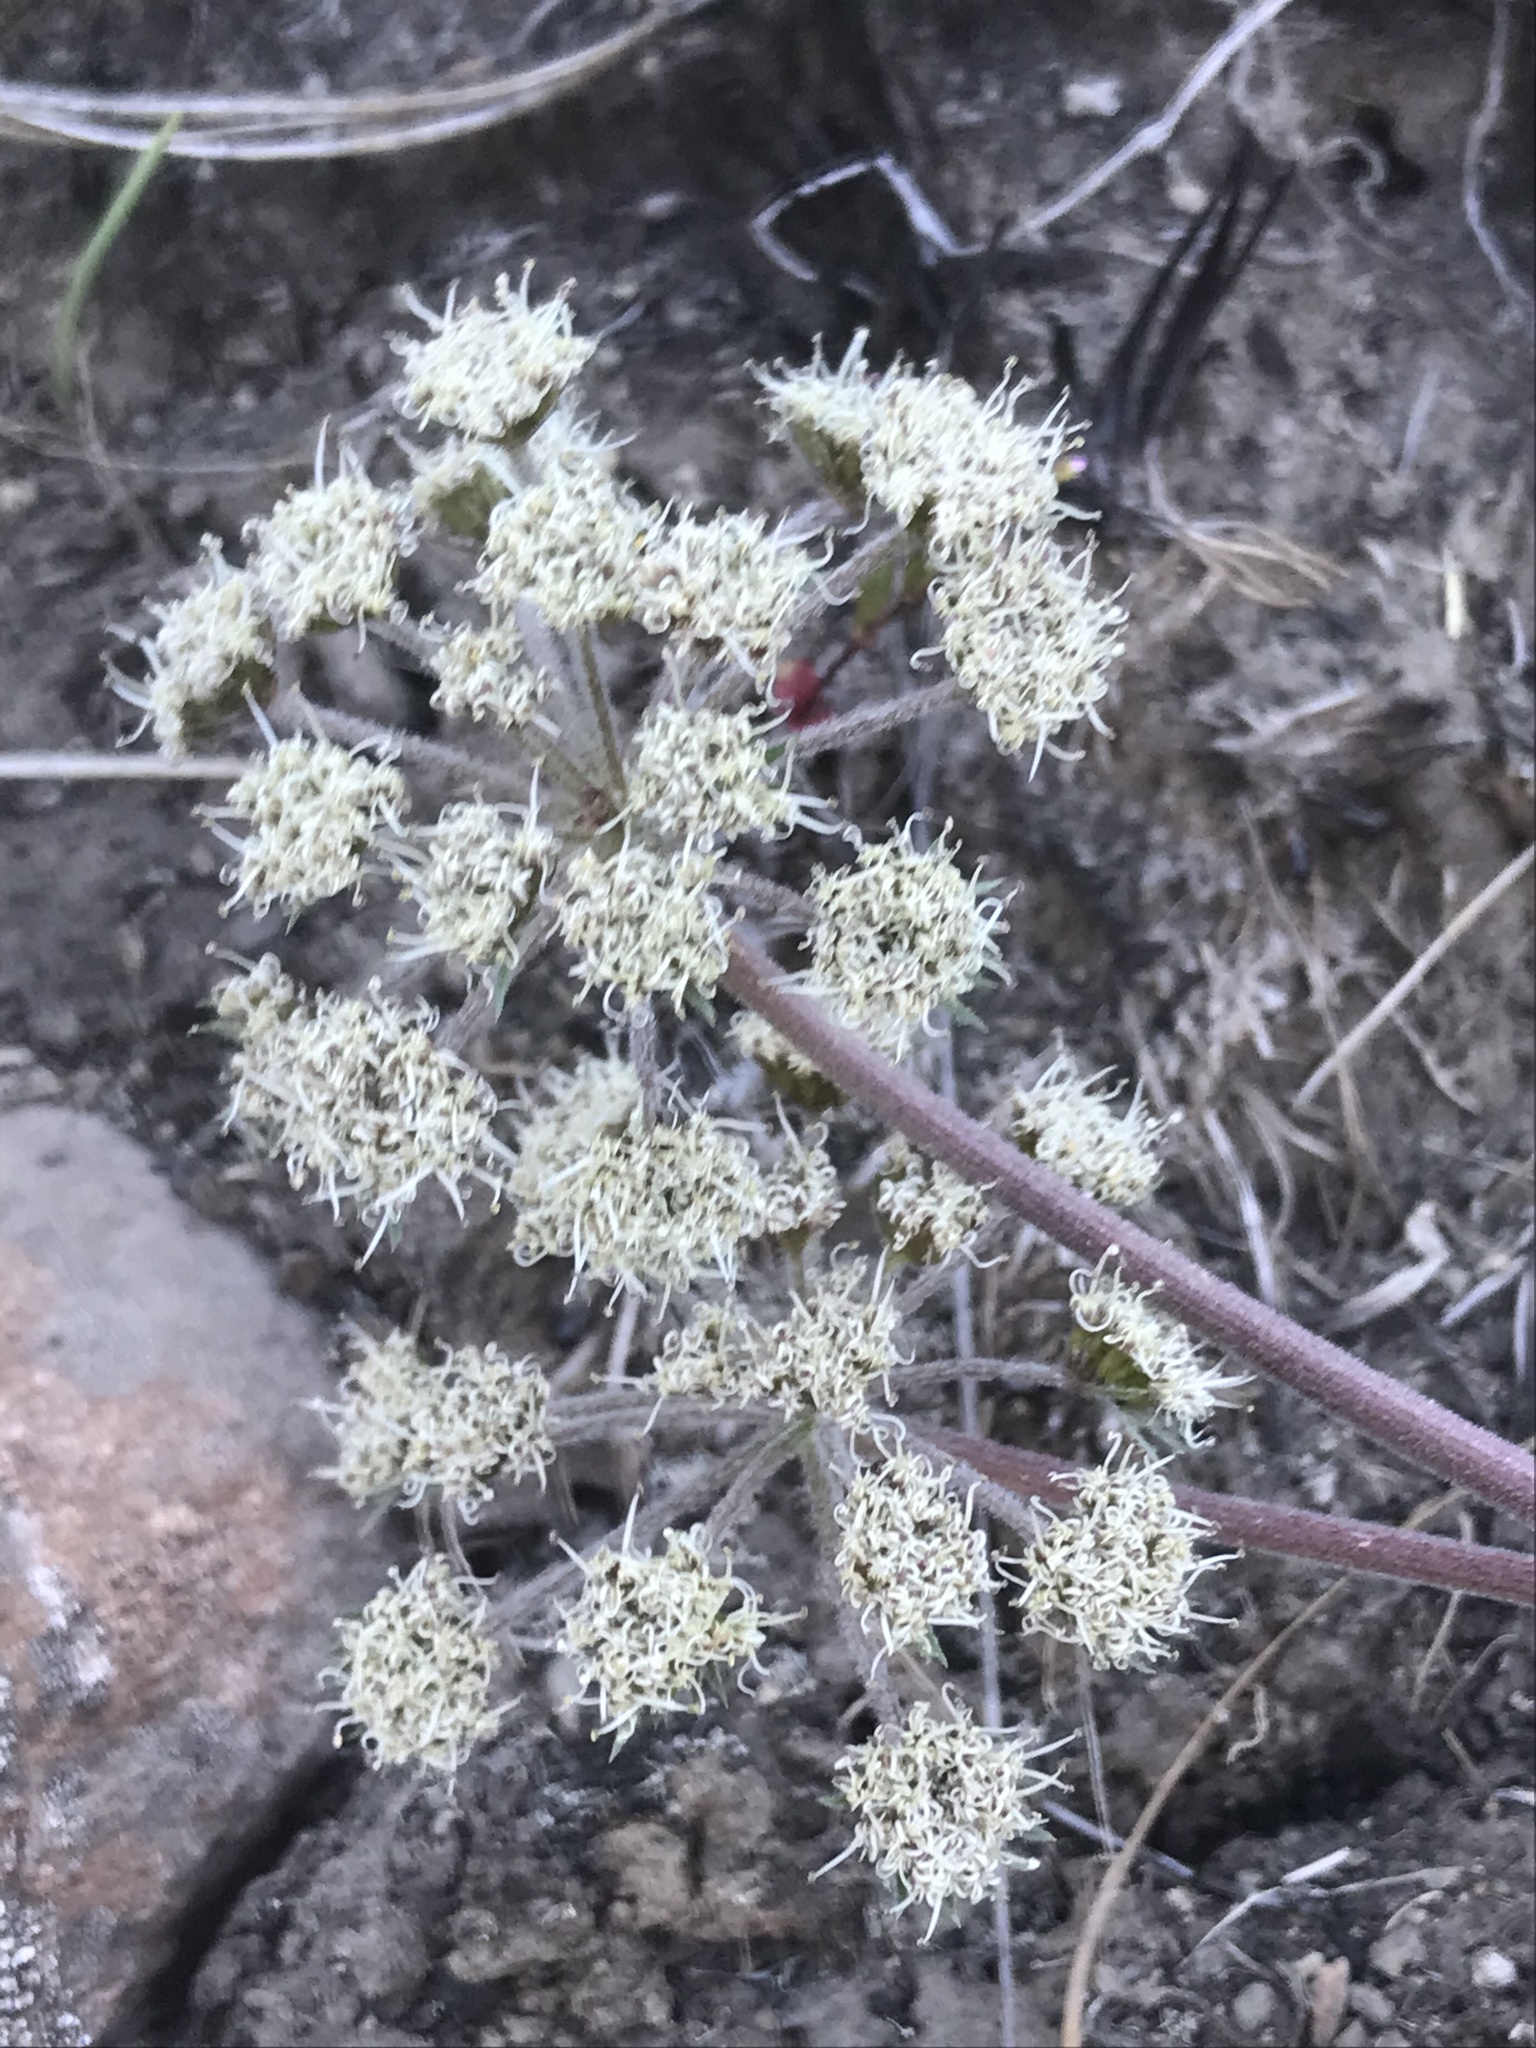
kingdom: Plantae
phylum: Tracheophyta
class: Magnoliopsida
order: Apiales
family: Apiaceae
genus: Lomatium
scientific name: Lomatium macrocarpum
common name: Big-seed biscuitroot
